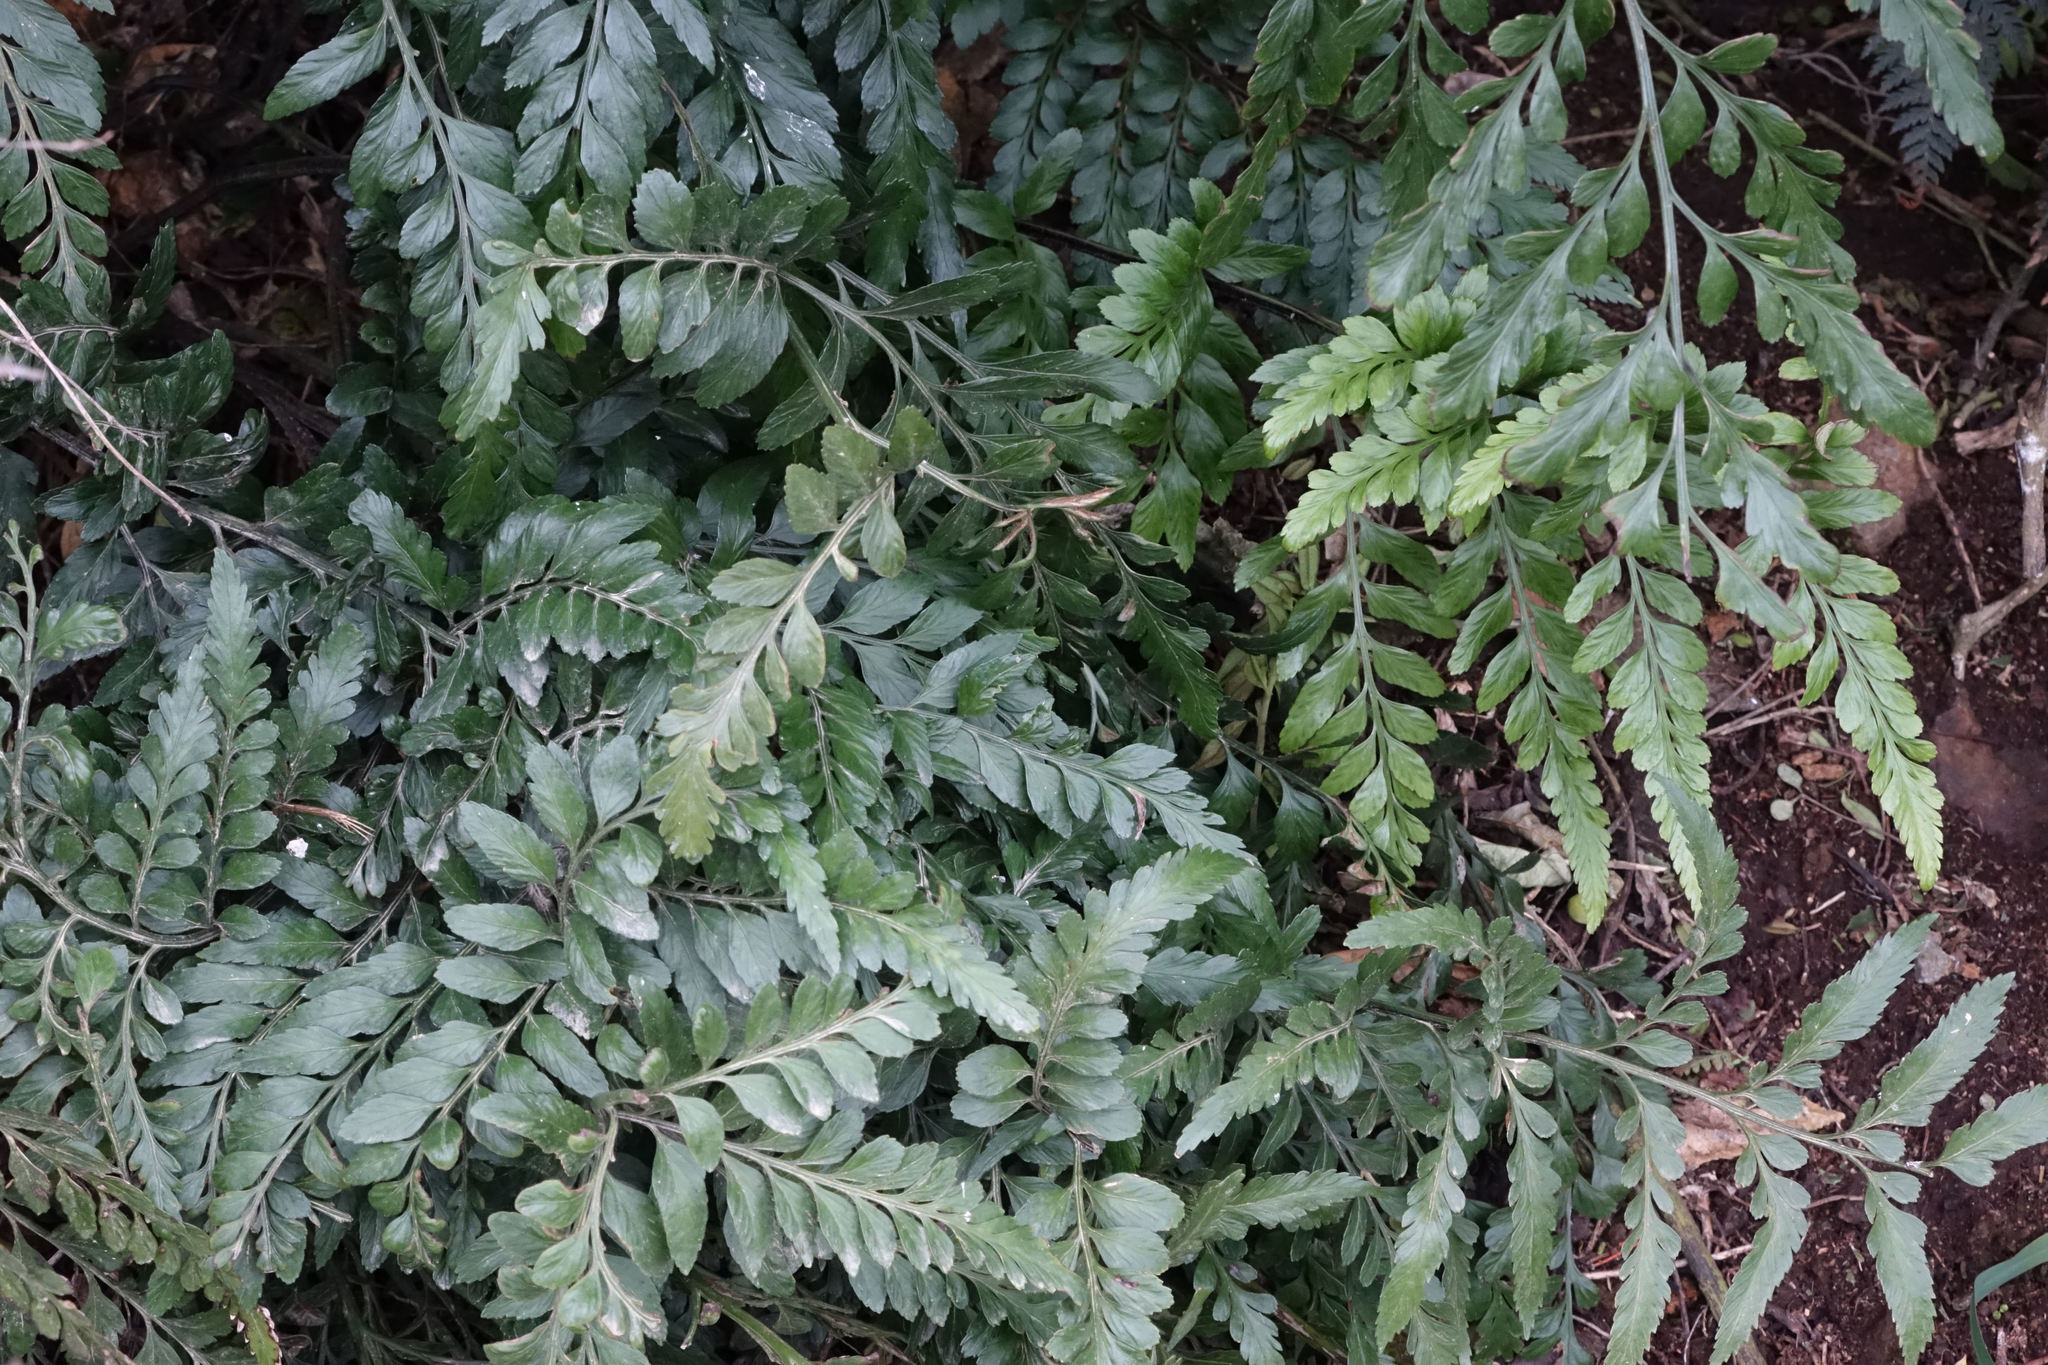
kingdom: Plantae
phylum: Tracheophyta
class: Polypodiopsida
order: Polypodiales
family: Aspleniaceae
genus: Asplenium
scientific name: Asplenium lyallii
